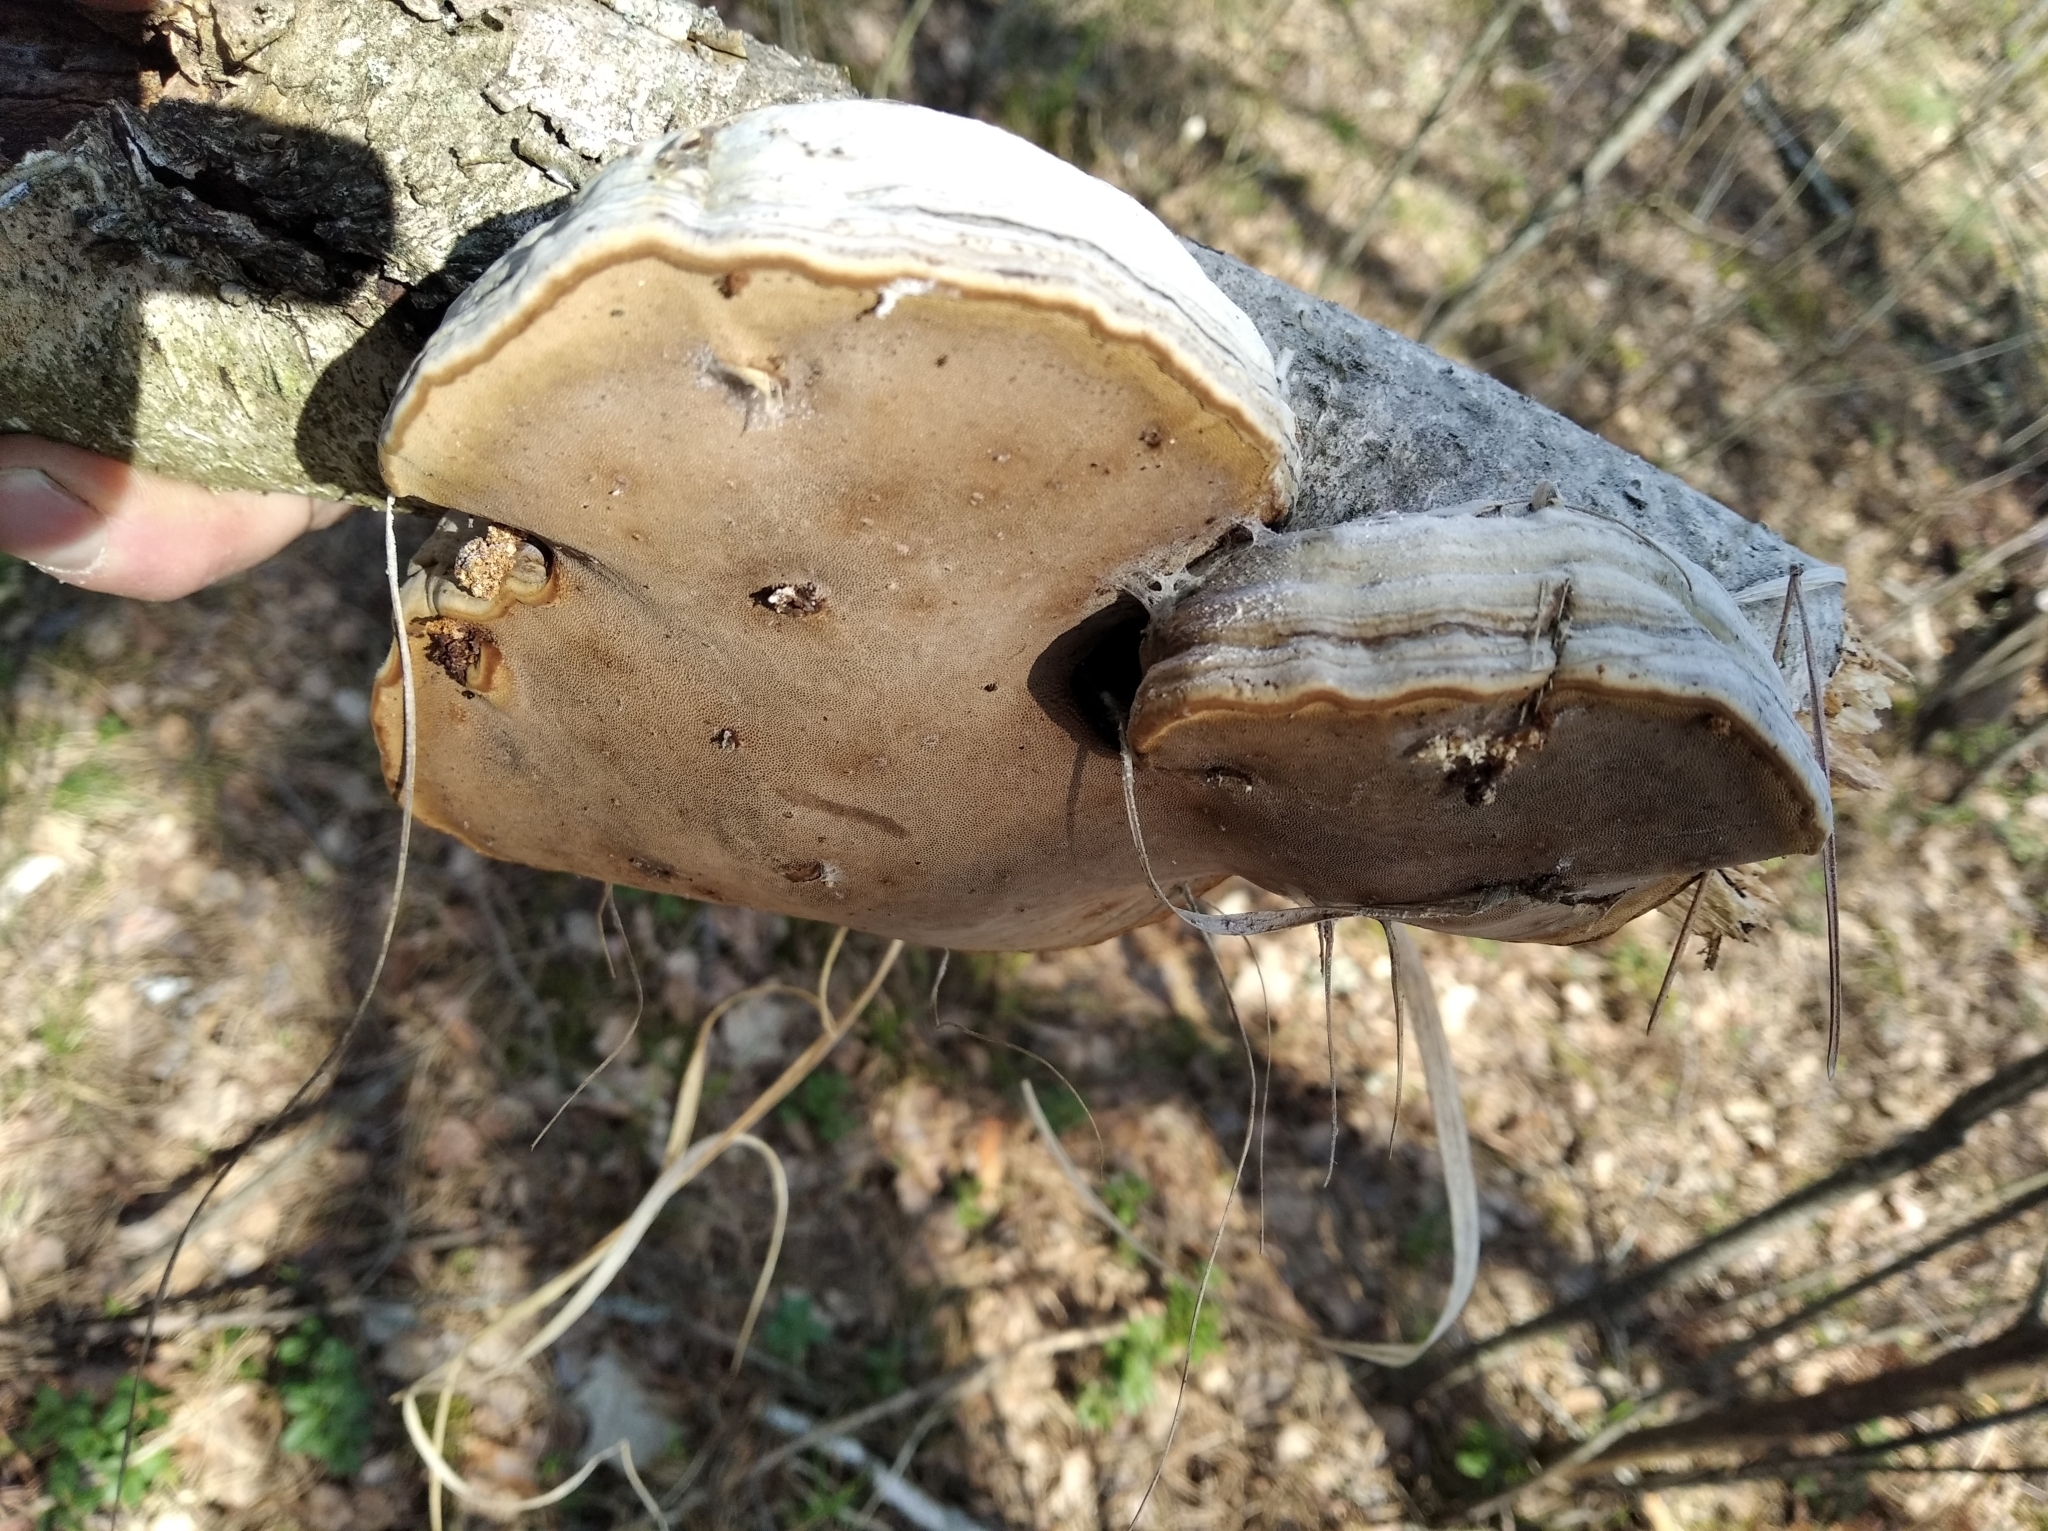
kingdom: Fungi
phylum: Basidiomycota
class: Agaricomycetes
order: Polyporales
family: Polyporaceae
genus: Fomes
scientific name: Fomes fomentarius
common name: Hoof fungus
